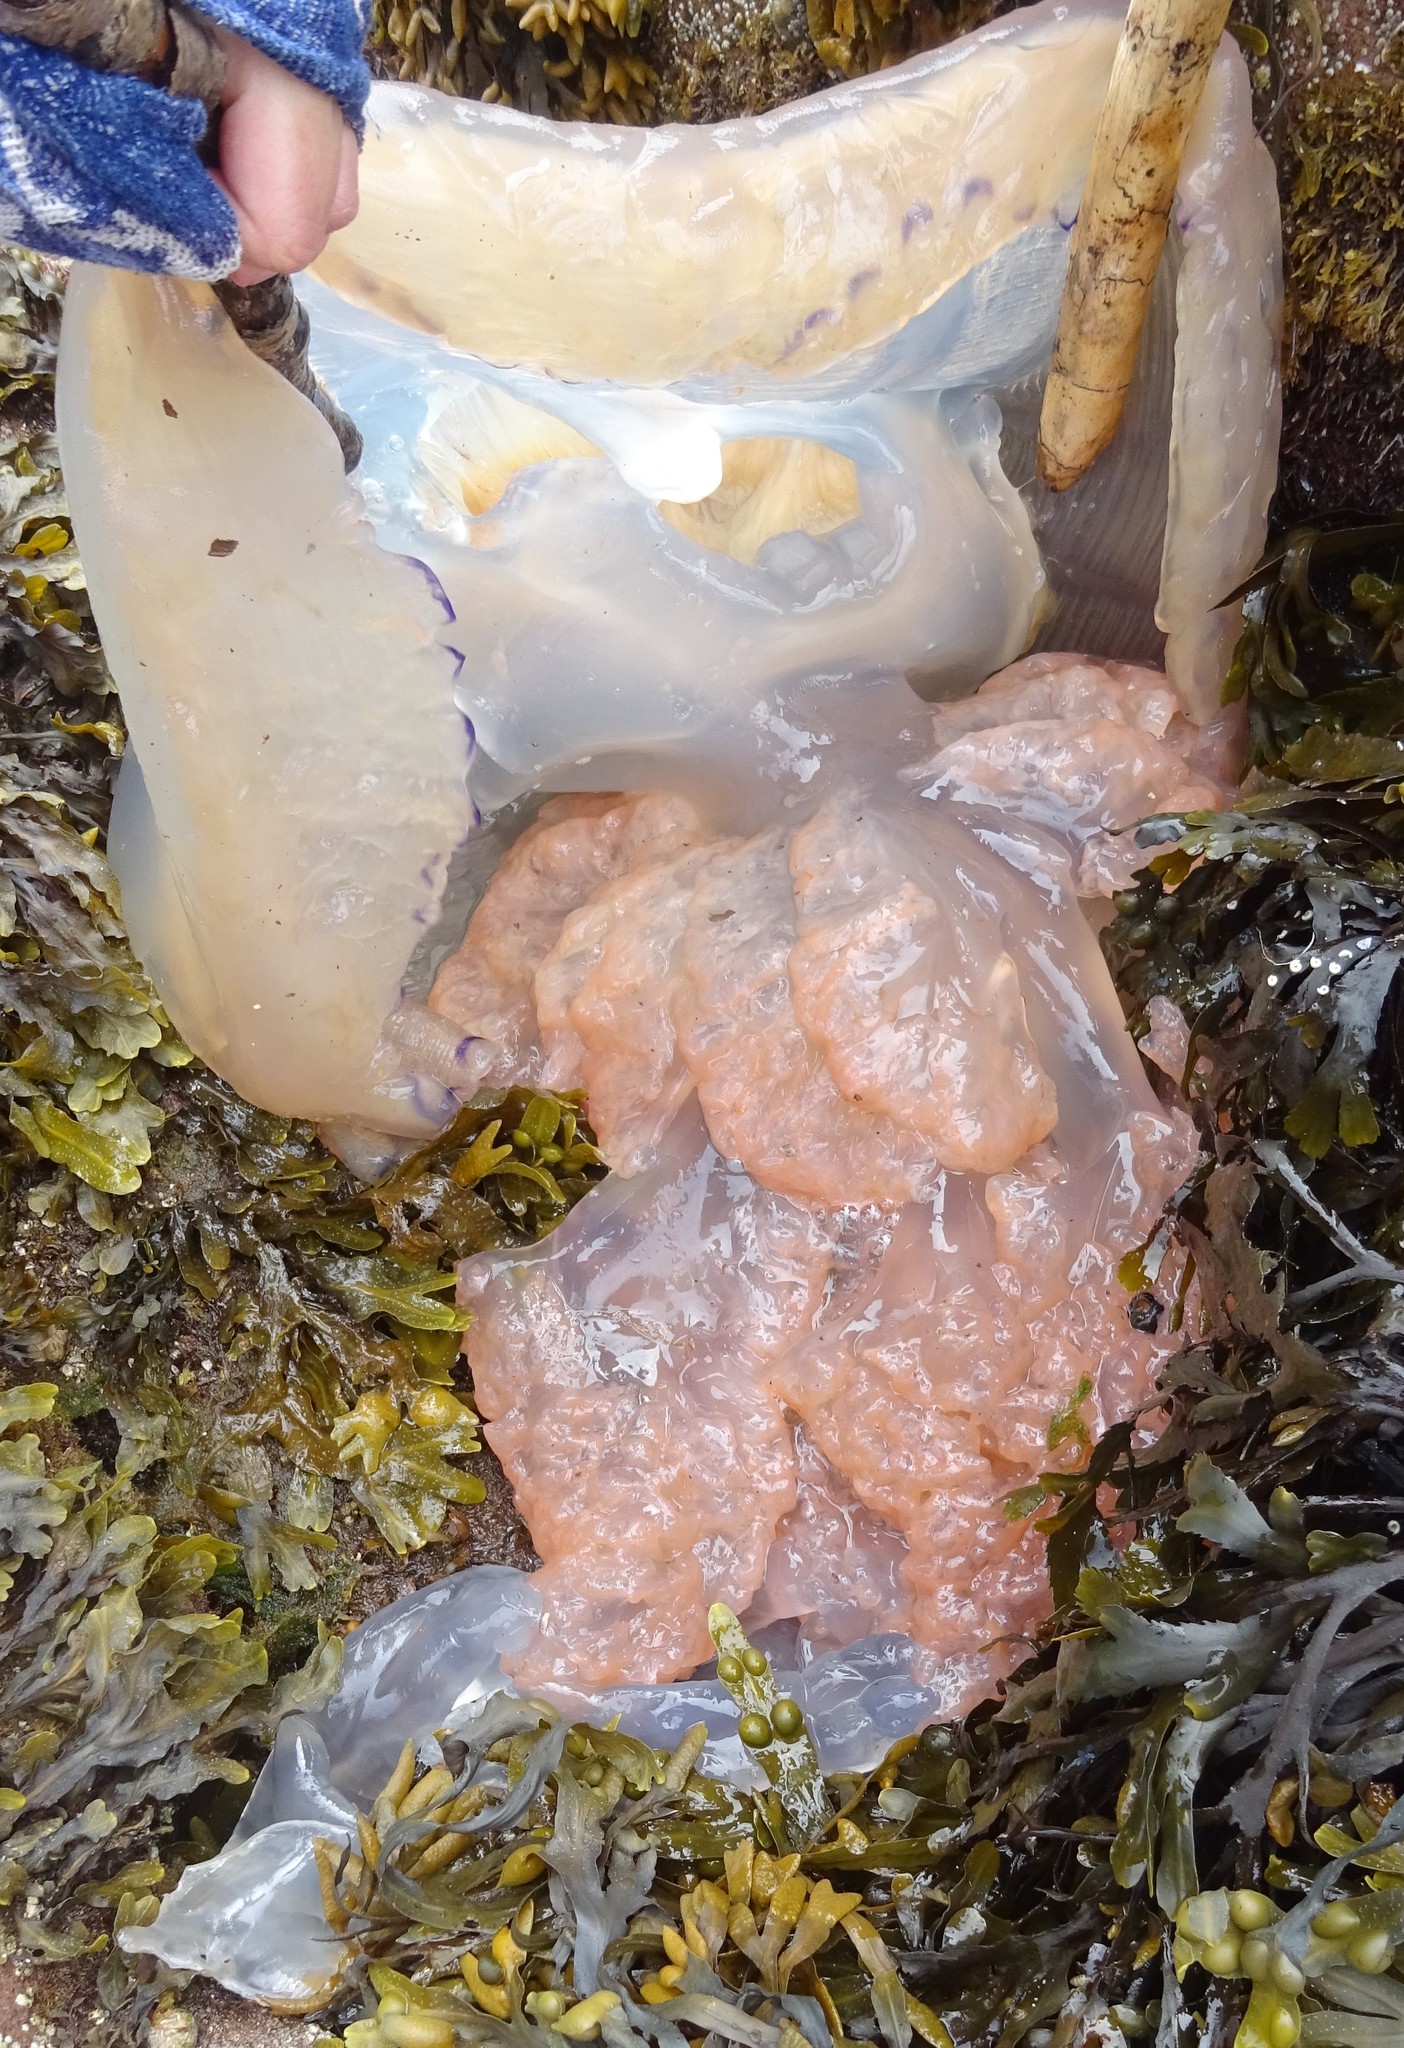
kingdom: Animalia
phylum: Cnidaria
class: Scyphozoa
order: Rhizostomeae
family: Rhizostomatidae
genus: Rhizostoma
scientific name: Rhizostoma octopus
